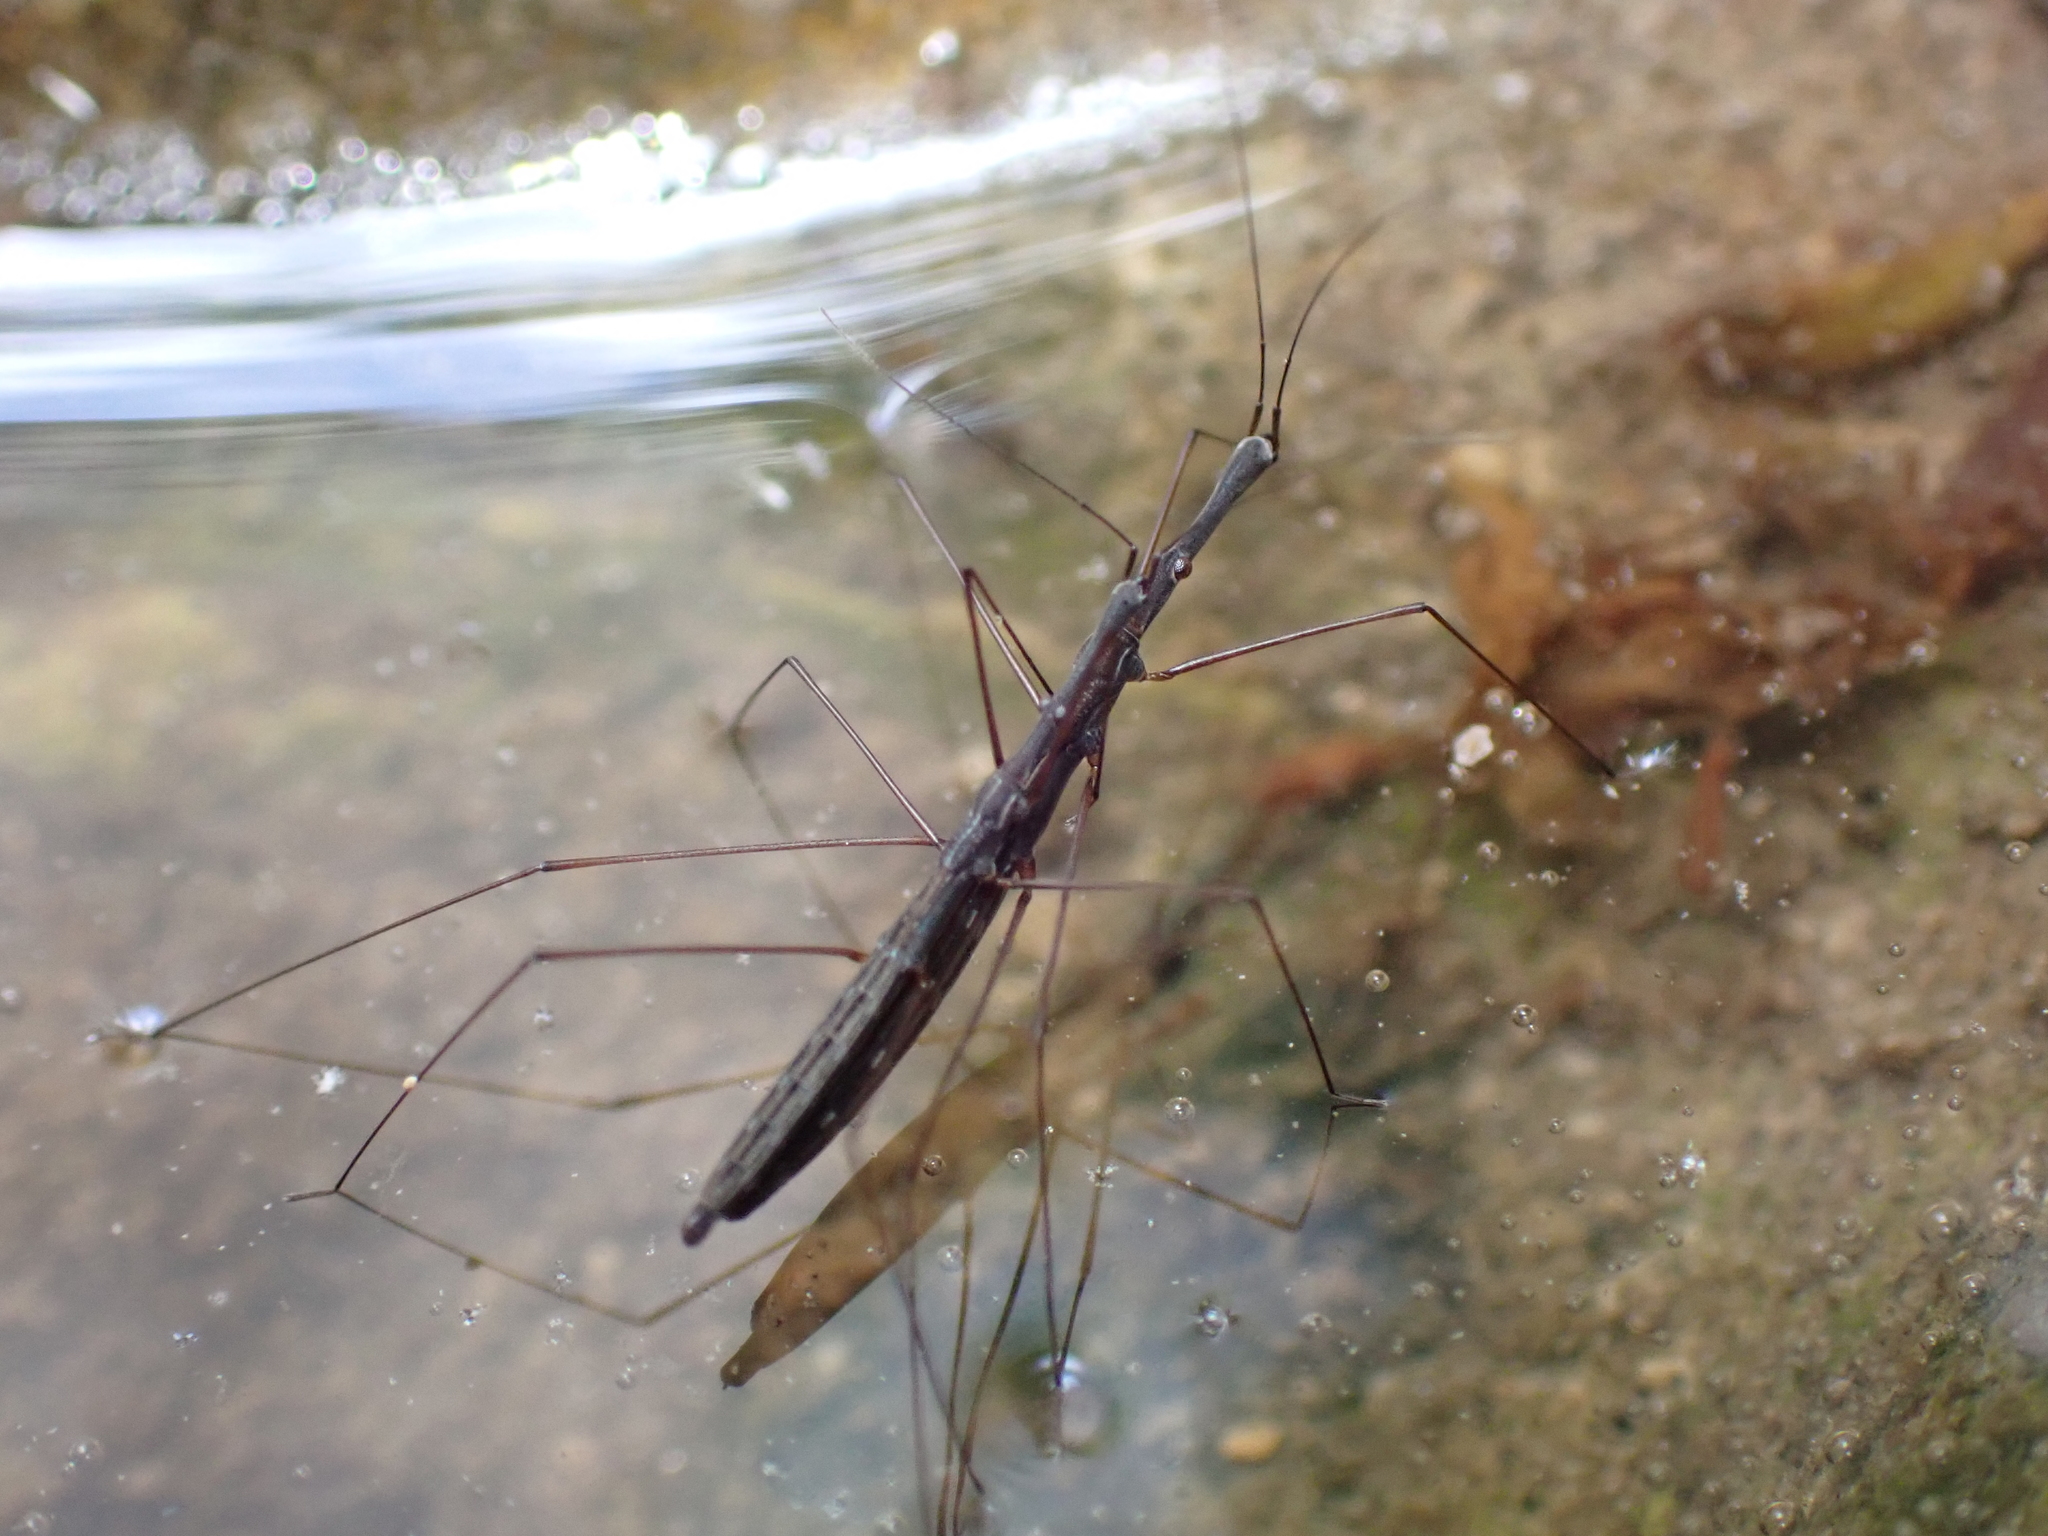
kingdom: Animalia
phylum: Arthropoda
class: Insecta
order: Hemiptera
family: Hydrometridae
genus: Hydrometra
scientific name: Hydrometra stagnorum
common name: Water measurer
